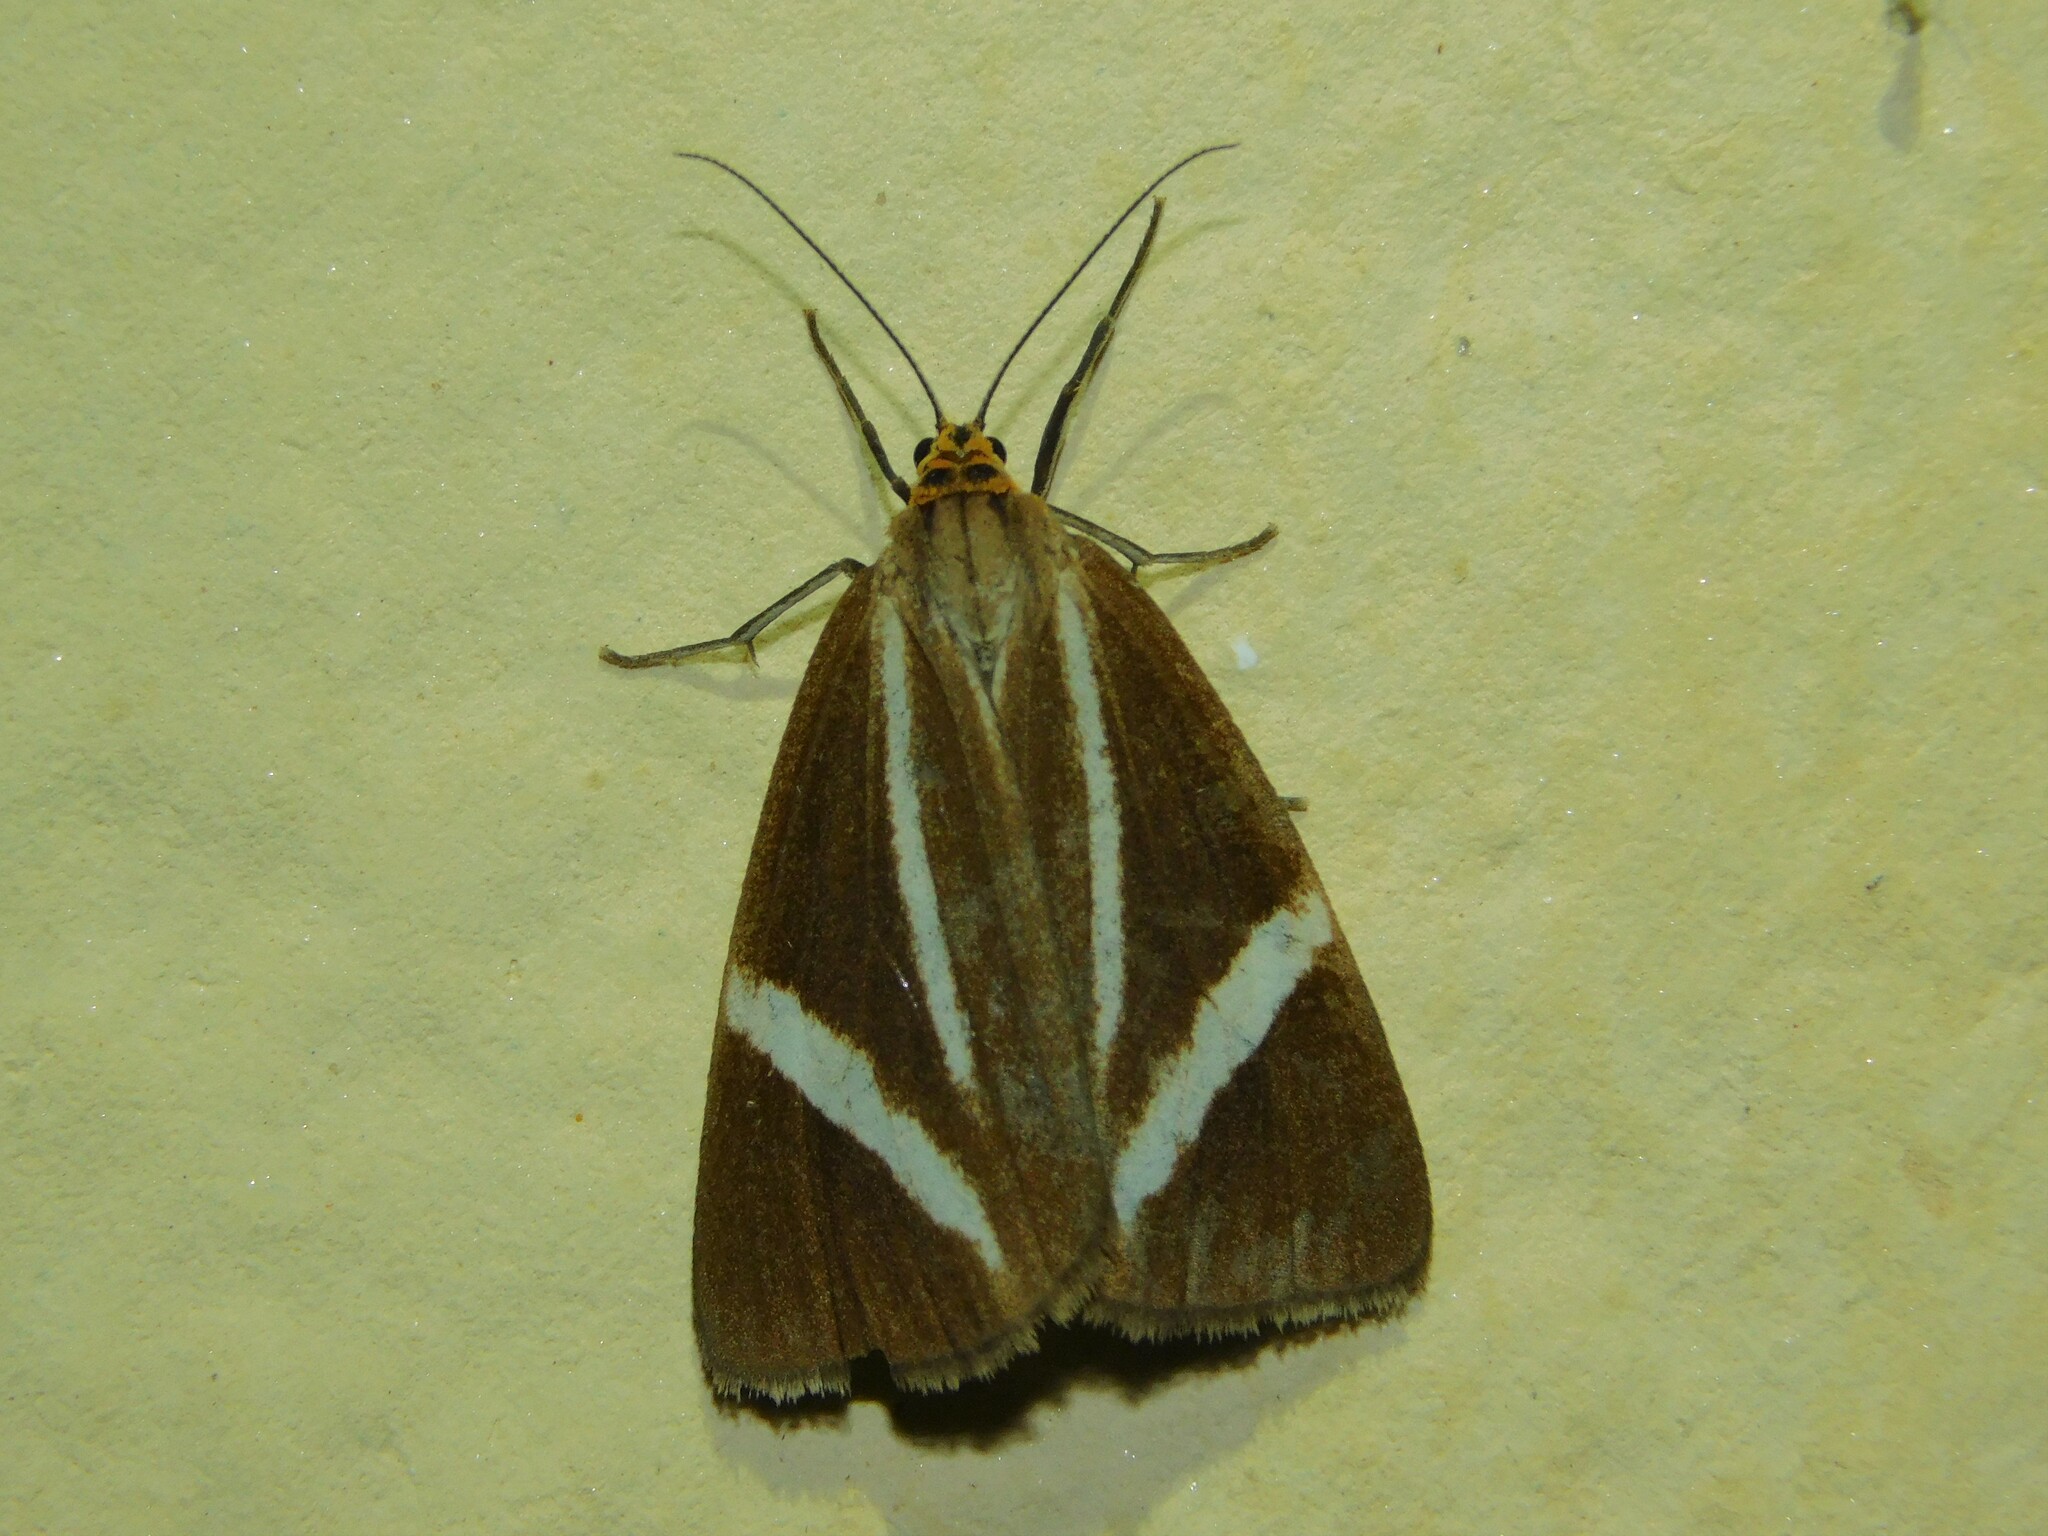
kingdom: Animalia
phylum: Arthropoda
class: Insecta
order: Lepidoptera
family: Erebidae
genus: Afronyctemera
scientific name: Afronyctemera
